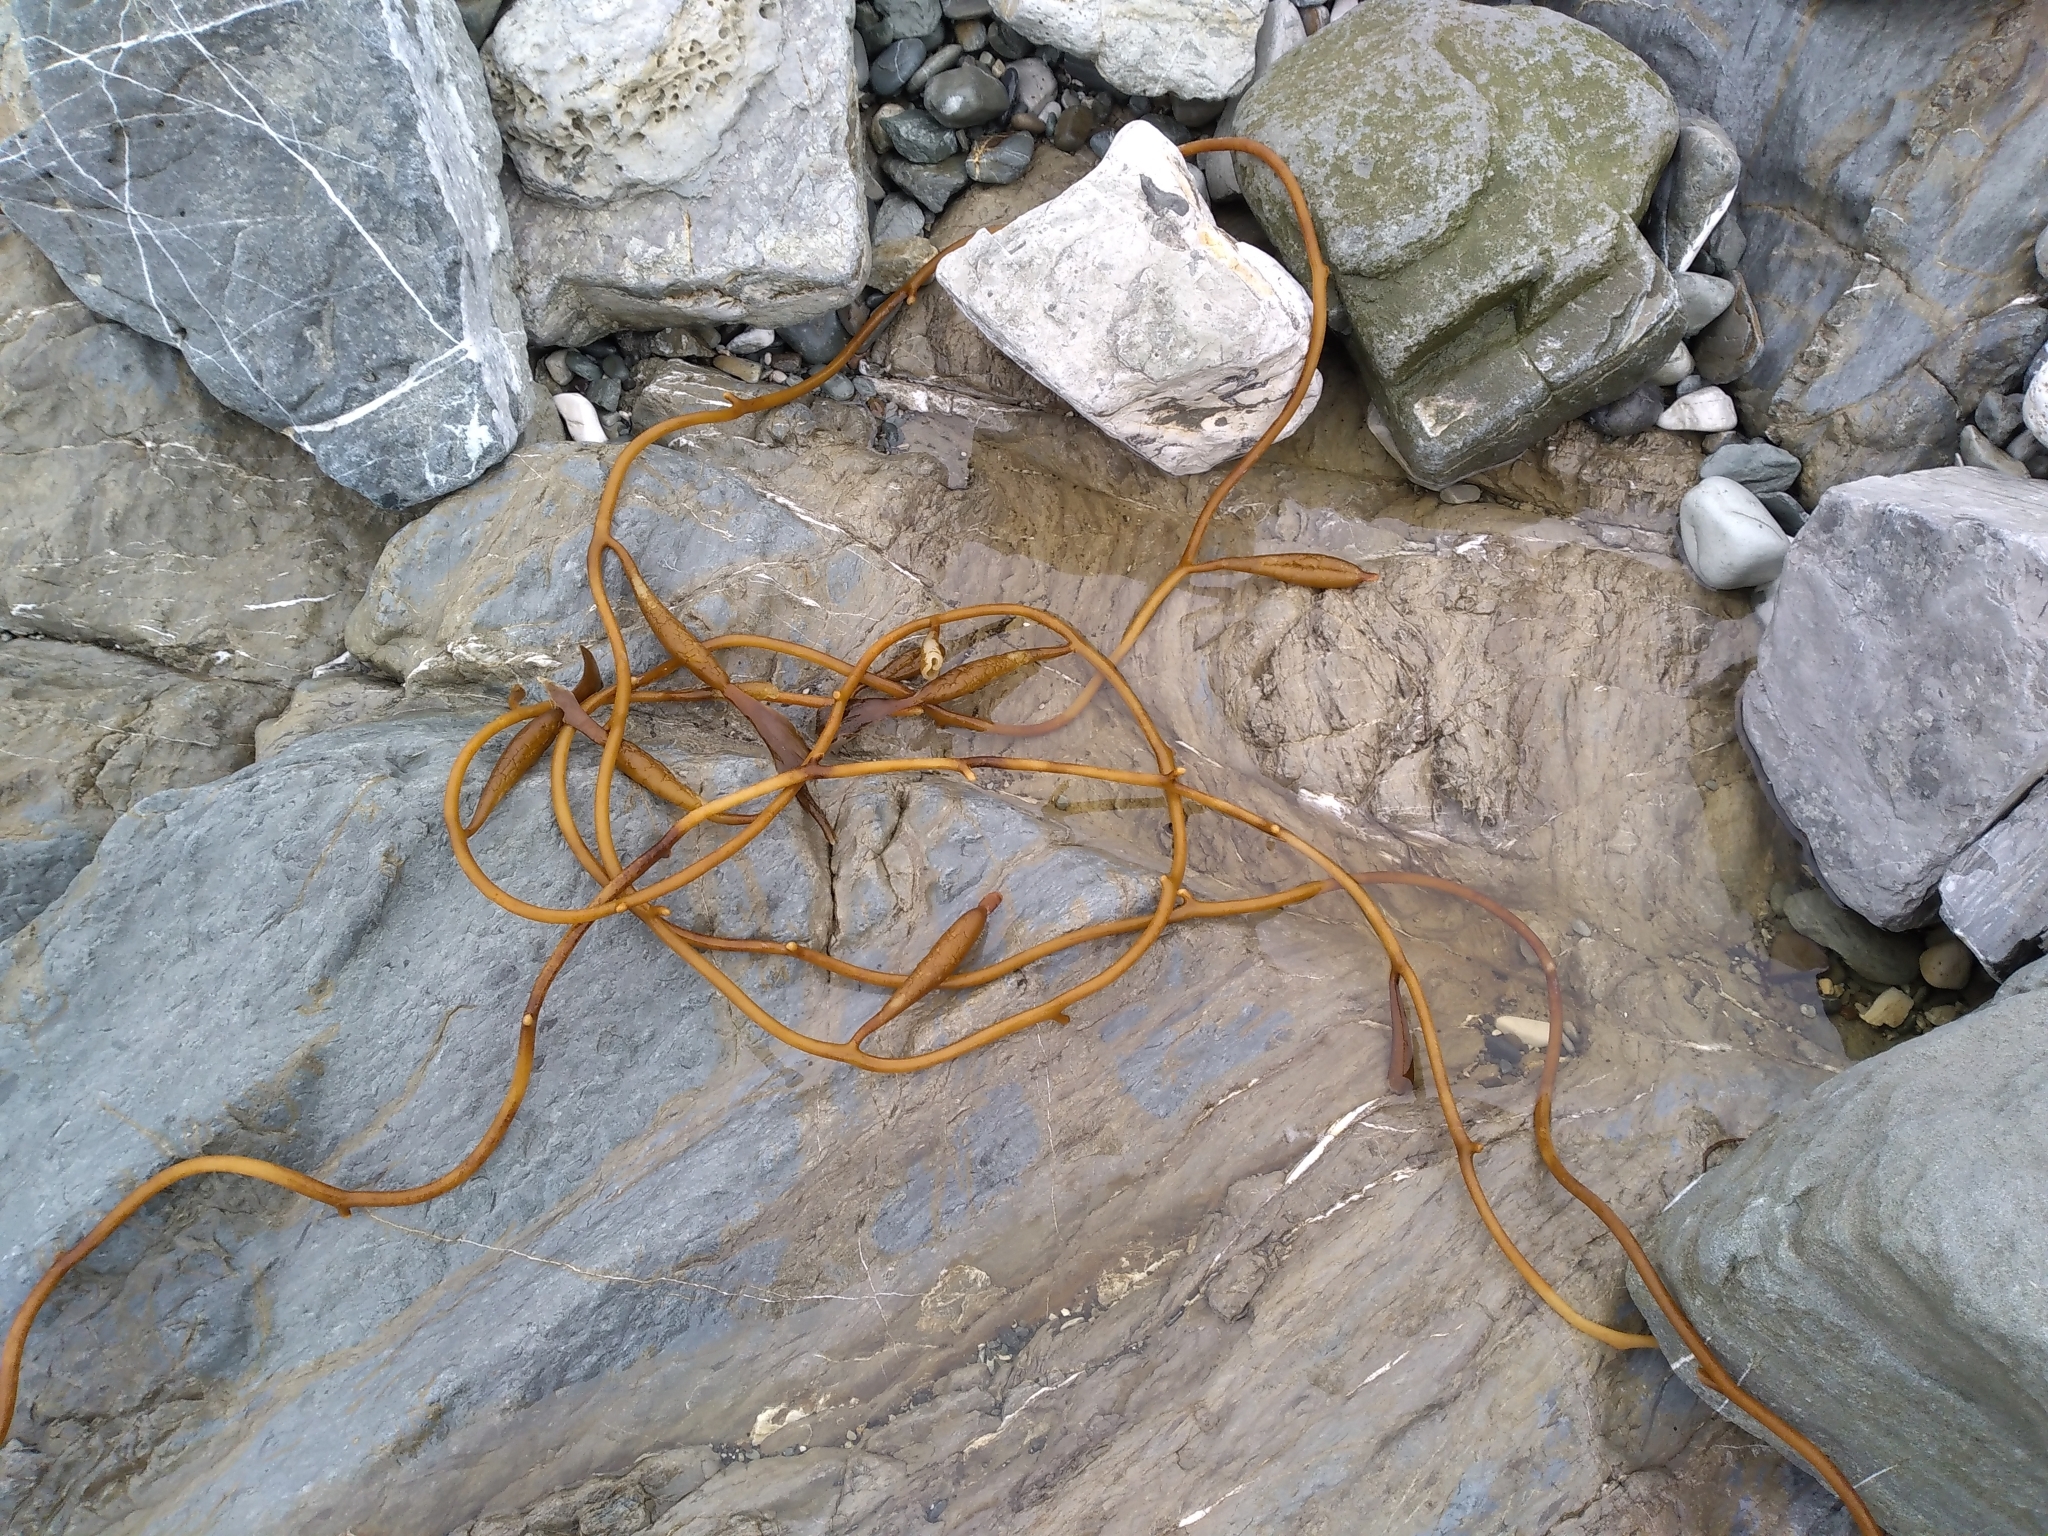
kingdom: Chromista
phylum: Ochrophyta
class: Phaeophyceae
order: Laminariales
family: Laminariaceae
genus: Macrocystis
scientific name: Macrocystis pyrifera
